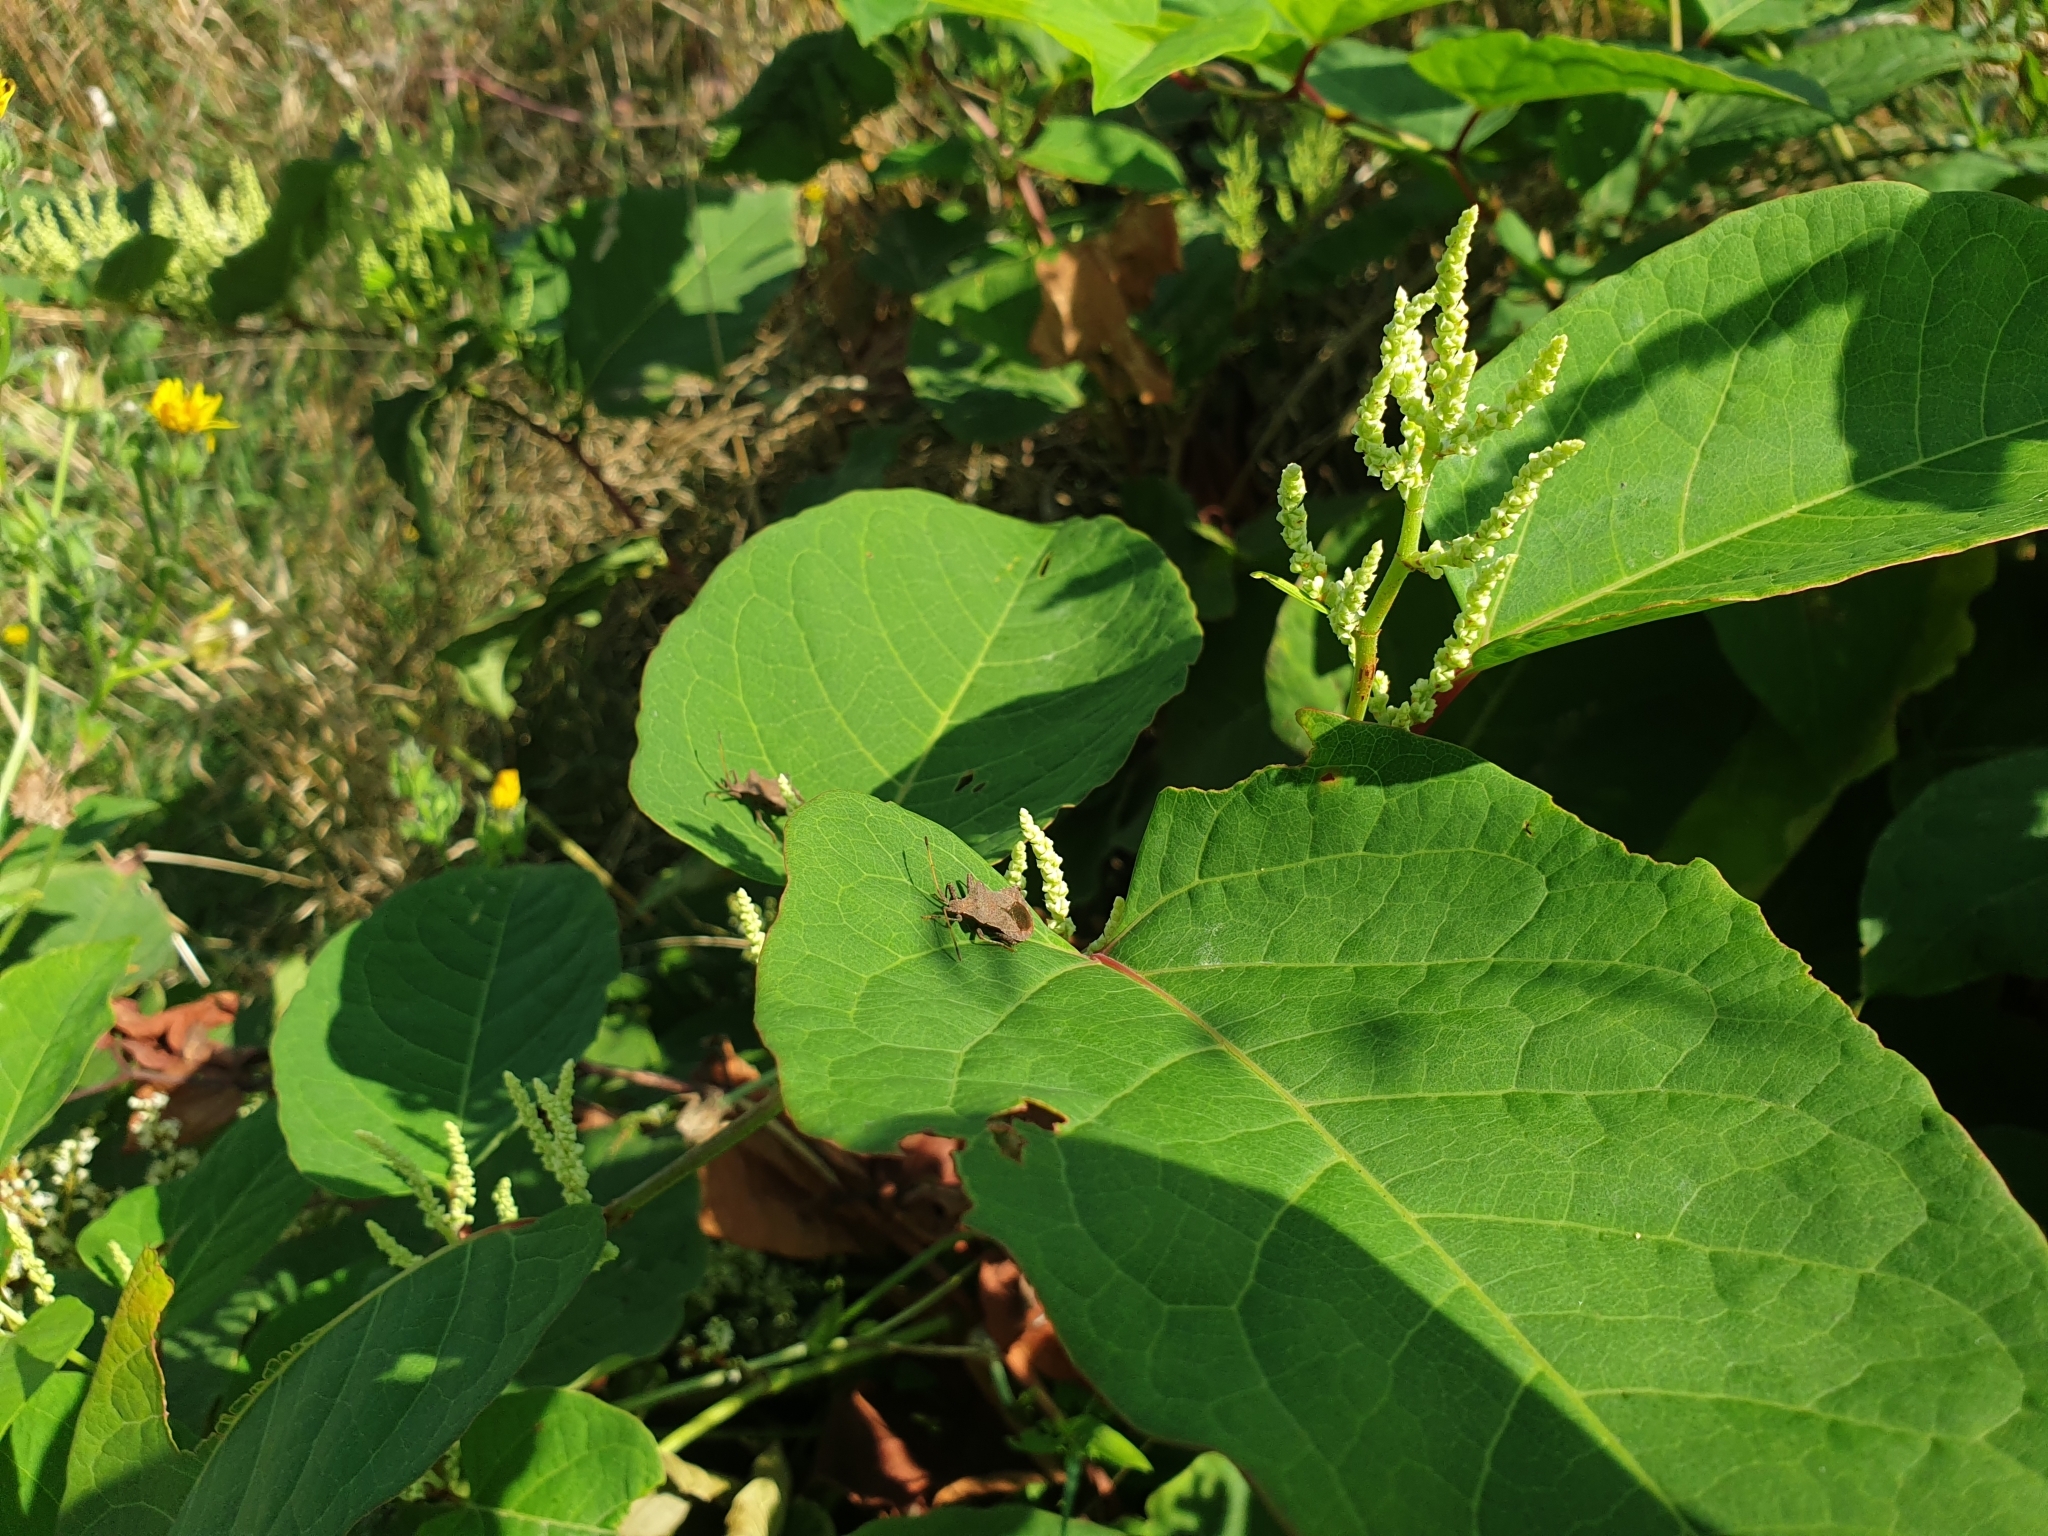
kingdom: Plantae
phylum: Tracheophyta
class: Magnoliopsida
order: Caryophyllales
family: Polygonaceae
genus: Reynoutria
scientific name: Reynoutria japonica
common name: Japanese knotweed
